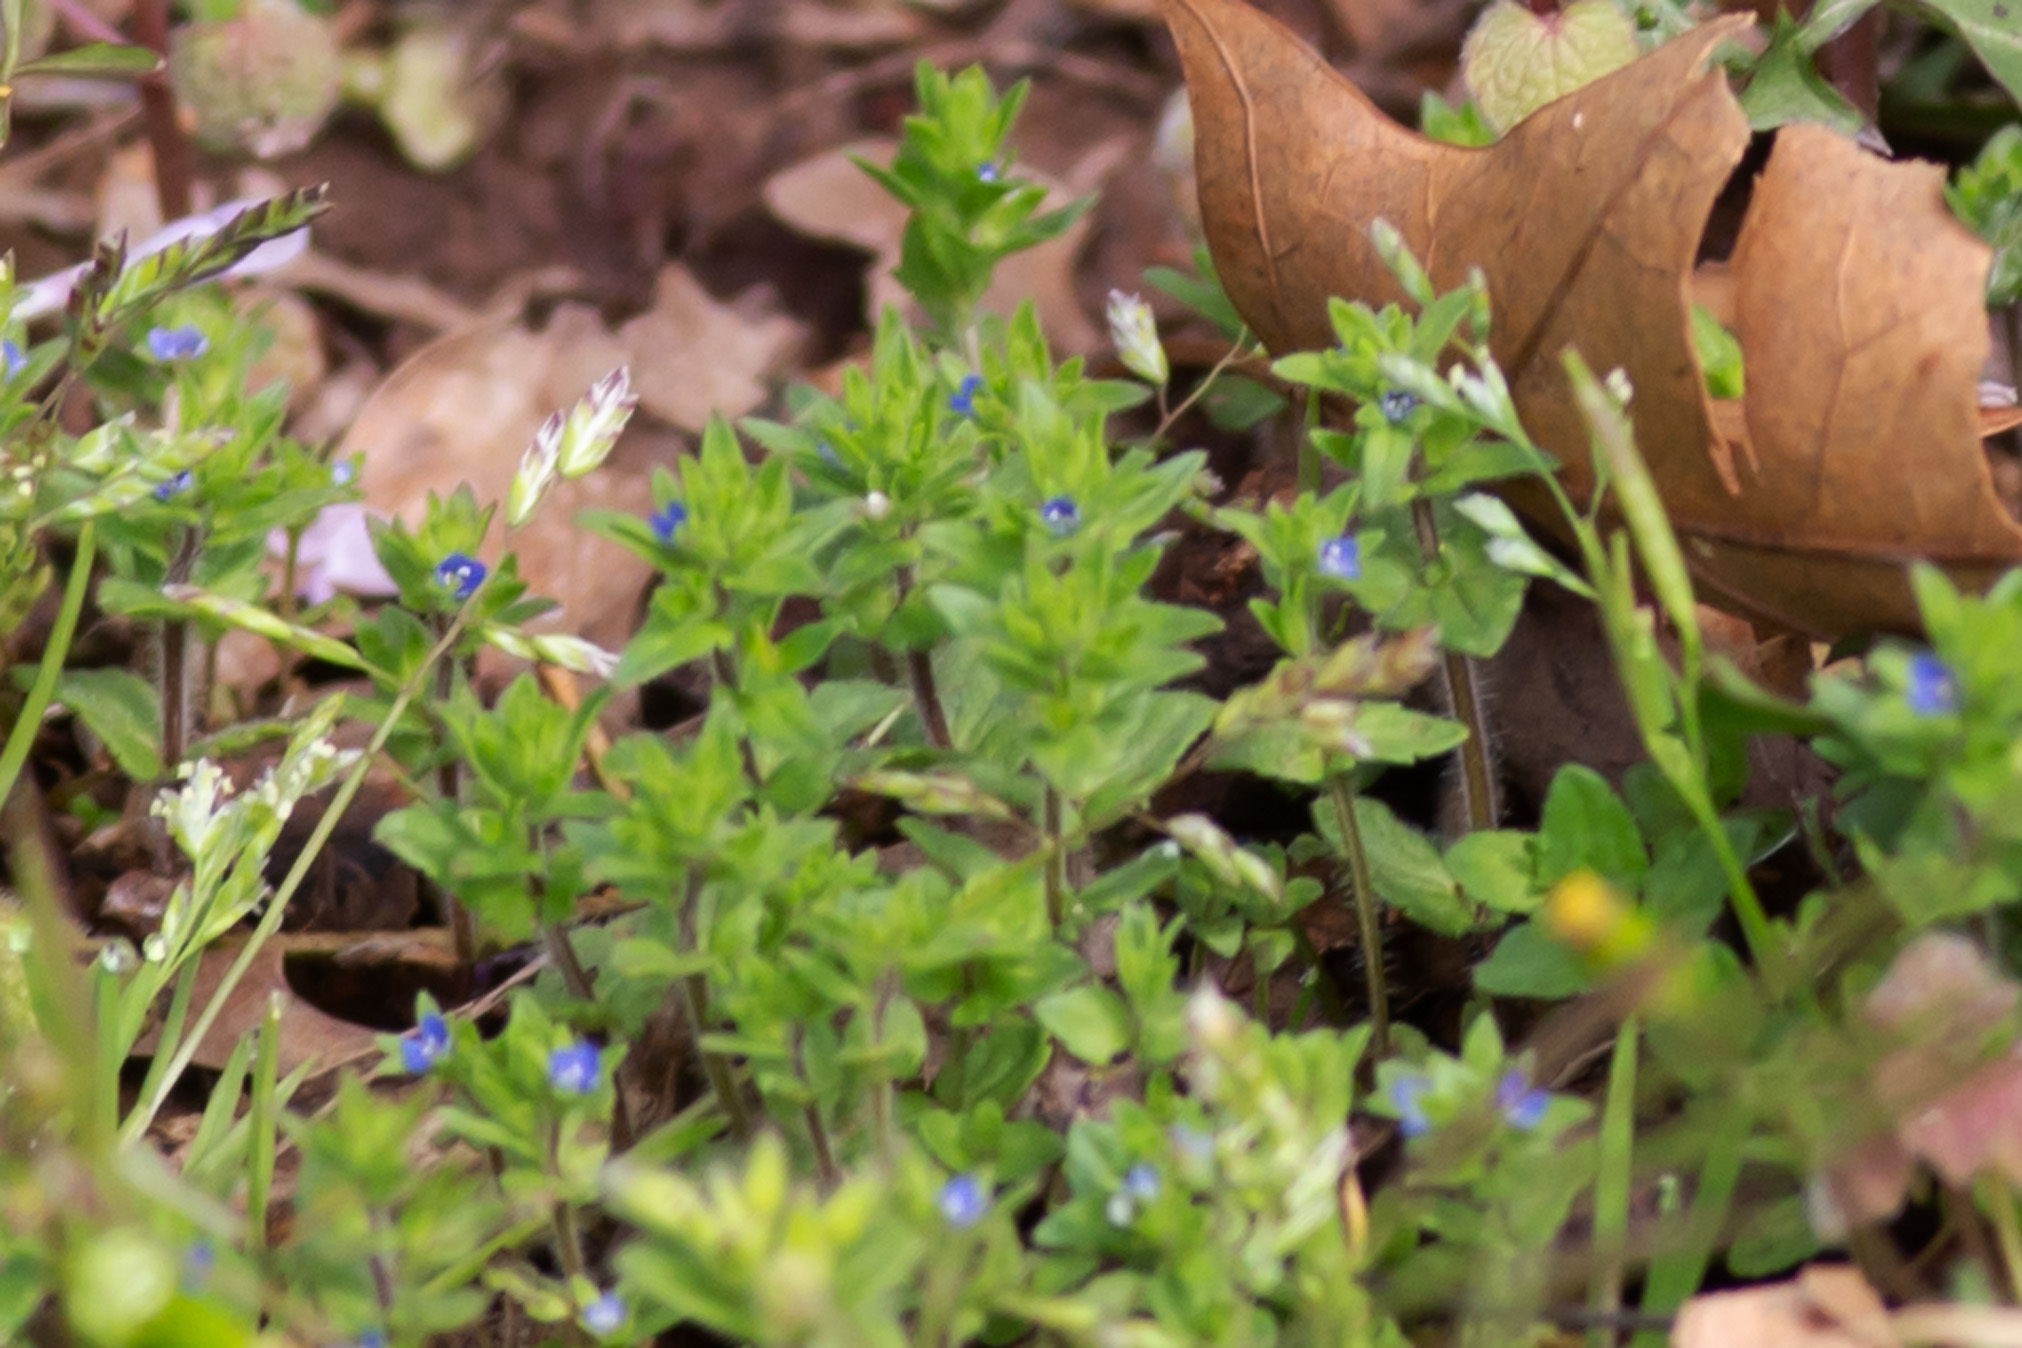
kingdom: Plantae
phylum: Tracheophyta
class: Magnoliopsida
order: Lamiales
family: Plantaginaceae
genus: Veronica
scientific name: Veronica arvensis
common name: Corn speedwell
